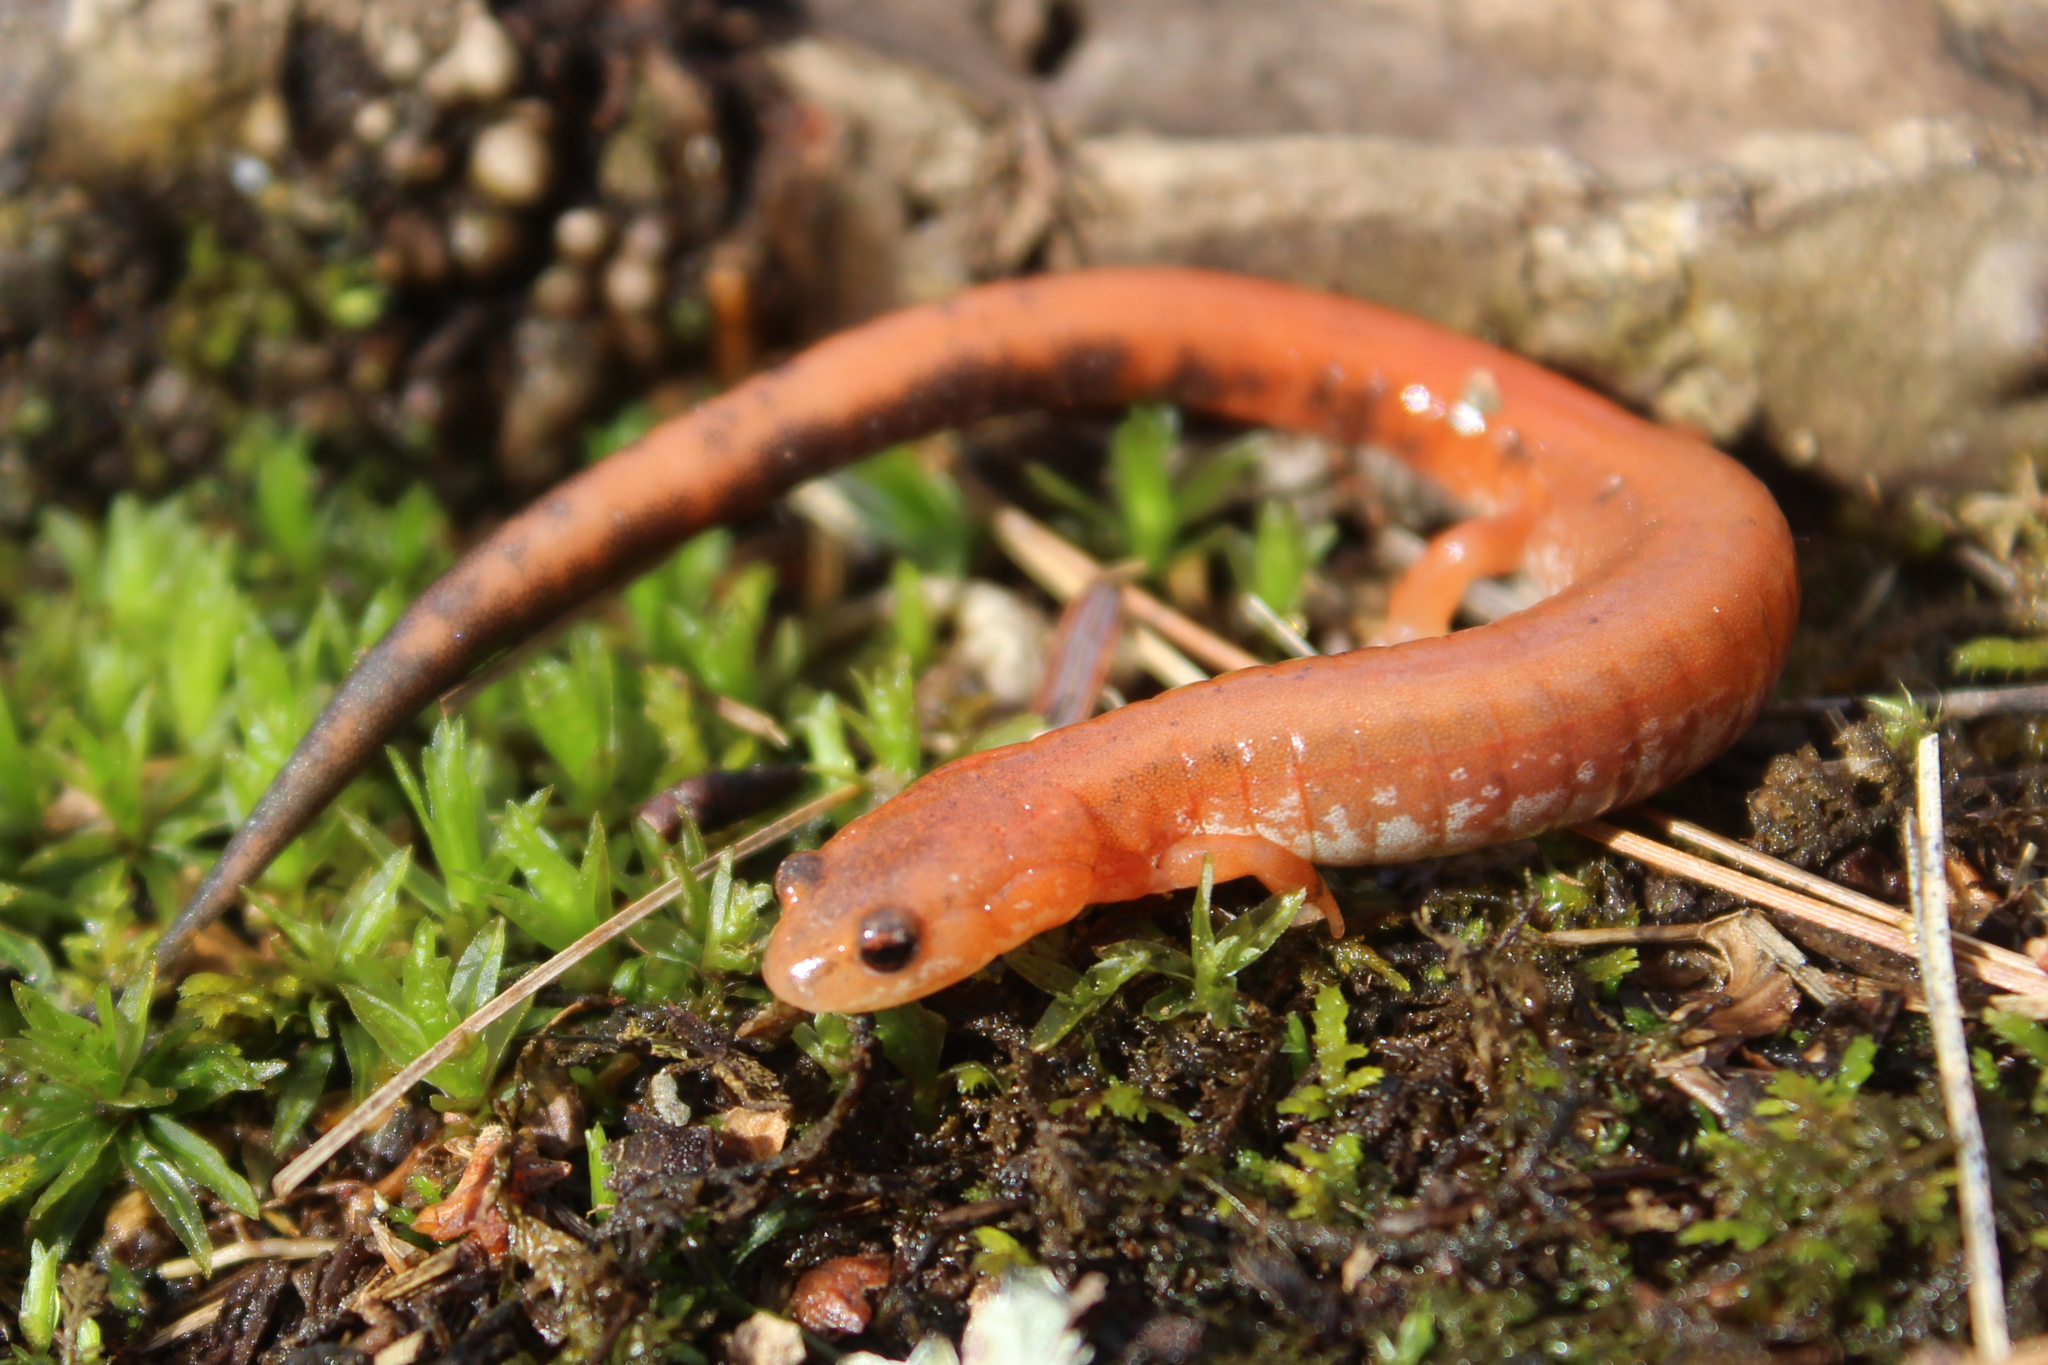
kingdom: Animalia
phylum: Chordata
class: Amphibia
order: Caudata
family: Plethodontidae
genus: Plethodon
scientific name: Plethodon cinereus
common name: Redback salamander
